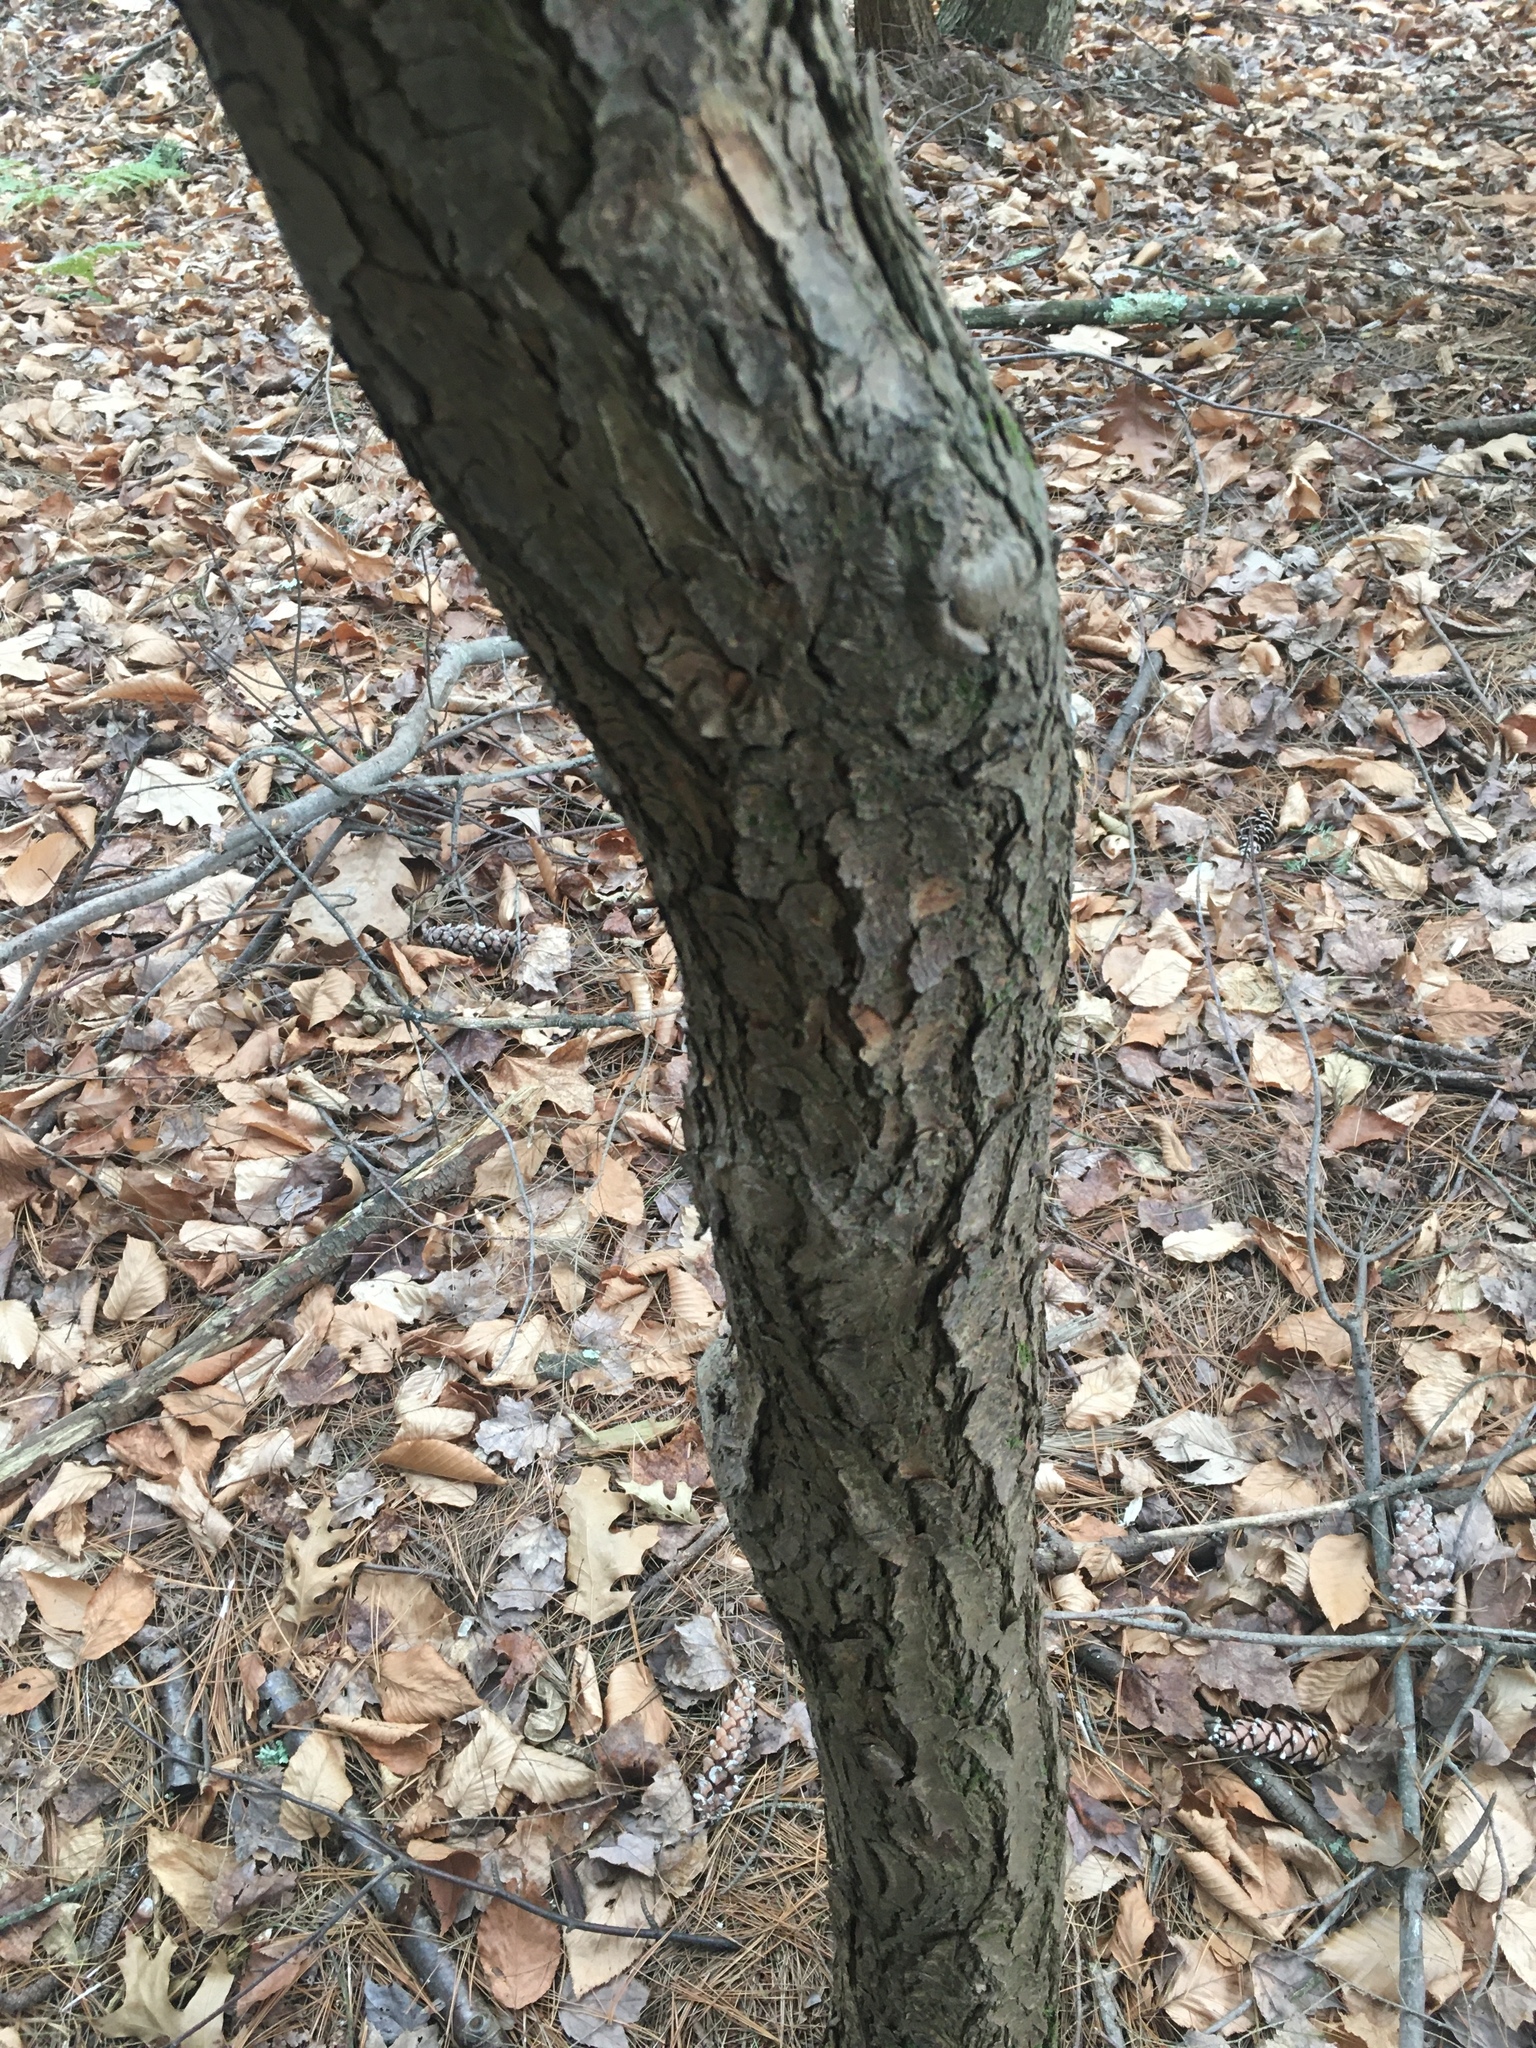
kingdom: Plantae
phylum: Tracheophyta
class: Pinopsida
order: Pinales
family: Pinaceae
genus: Tsuga
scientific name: Tsuga canadensis
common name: Eastern hemlock
